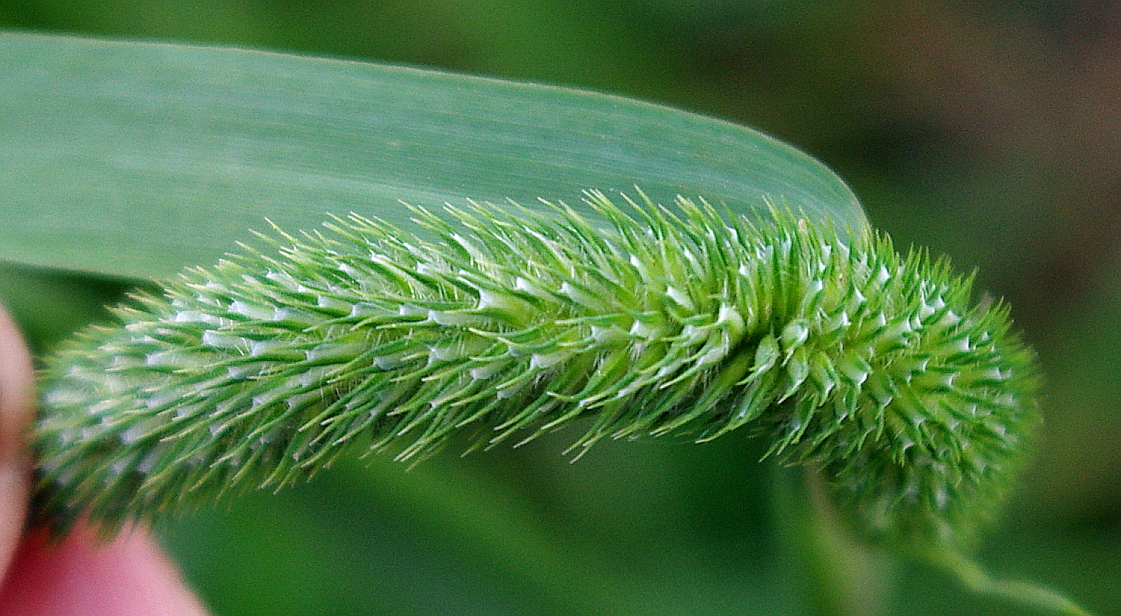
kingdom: Plantae
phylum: Tracheophyta
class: Liliopsida
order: Poales
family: Poaceae
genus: Phleum
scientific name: Phleum pratense
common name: Timothy grass
